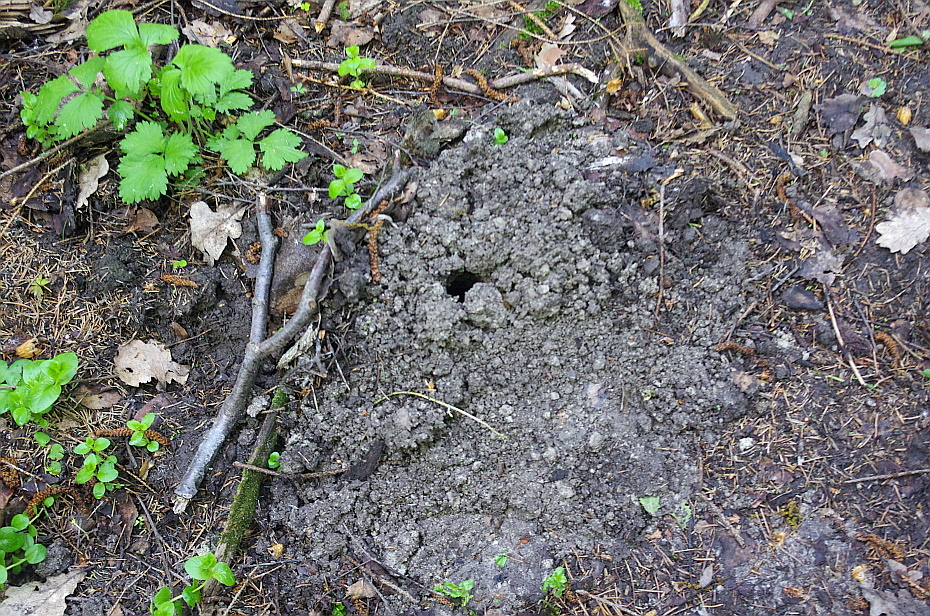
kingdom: Animalia
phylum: Chordata
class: Mammalia
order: Soricomorpha
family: Talpidae
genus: Talpa
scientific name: Talpa europaea
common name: European mole
